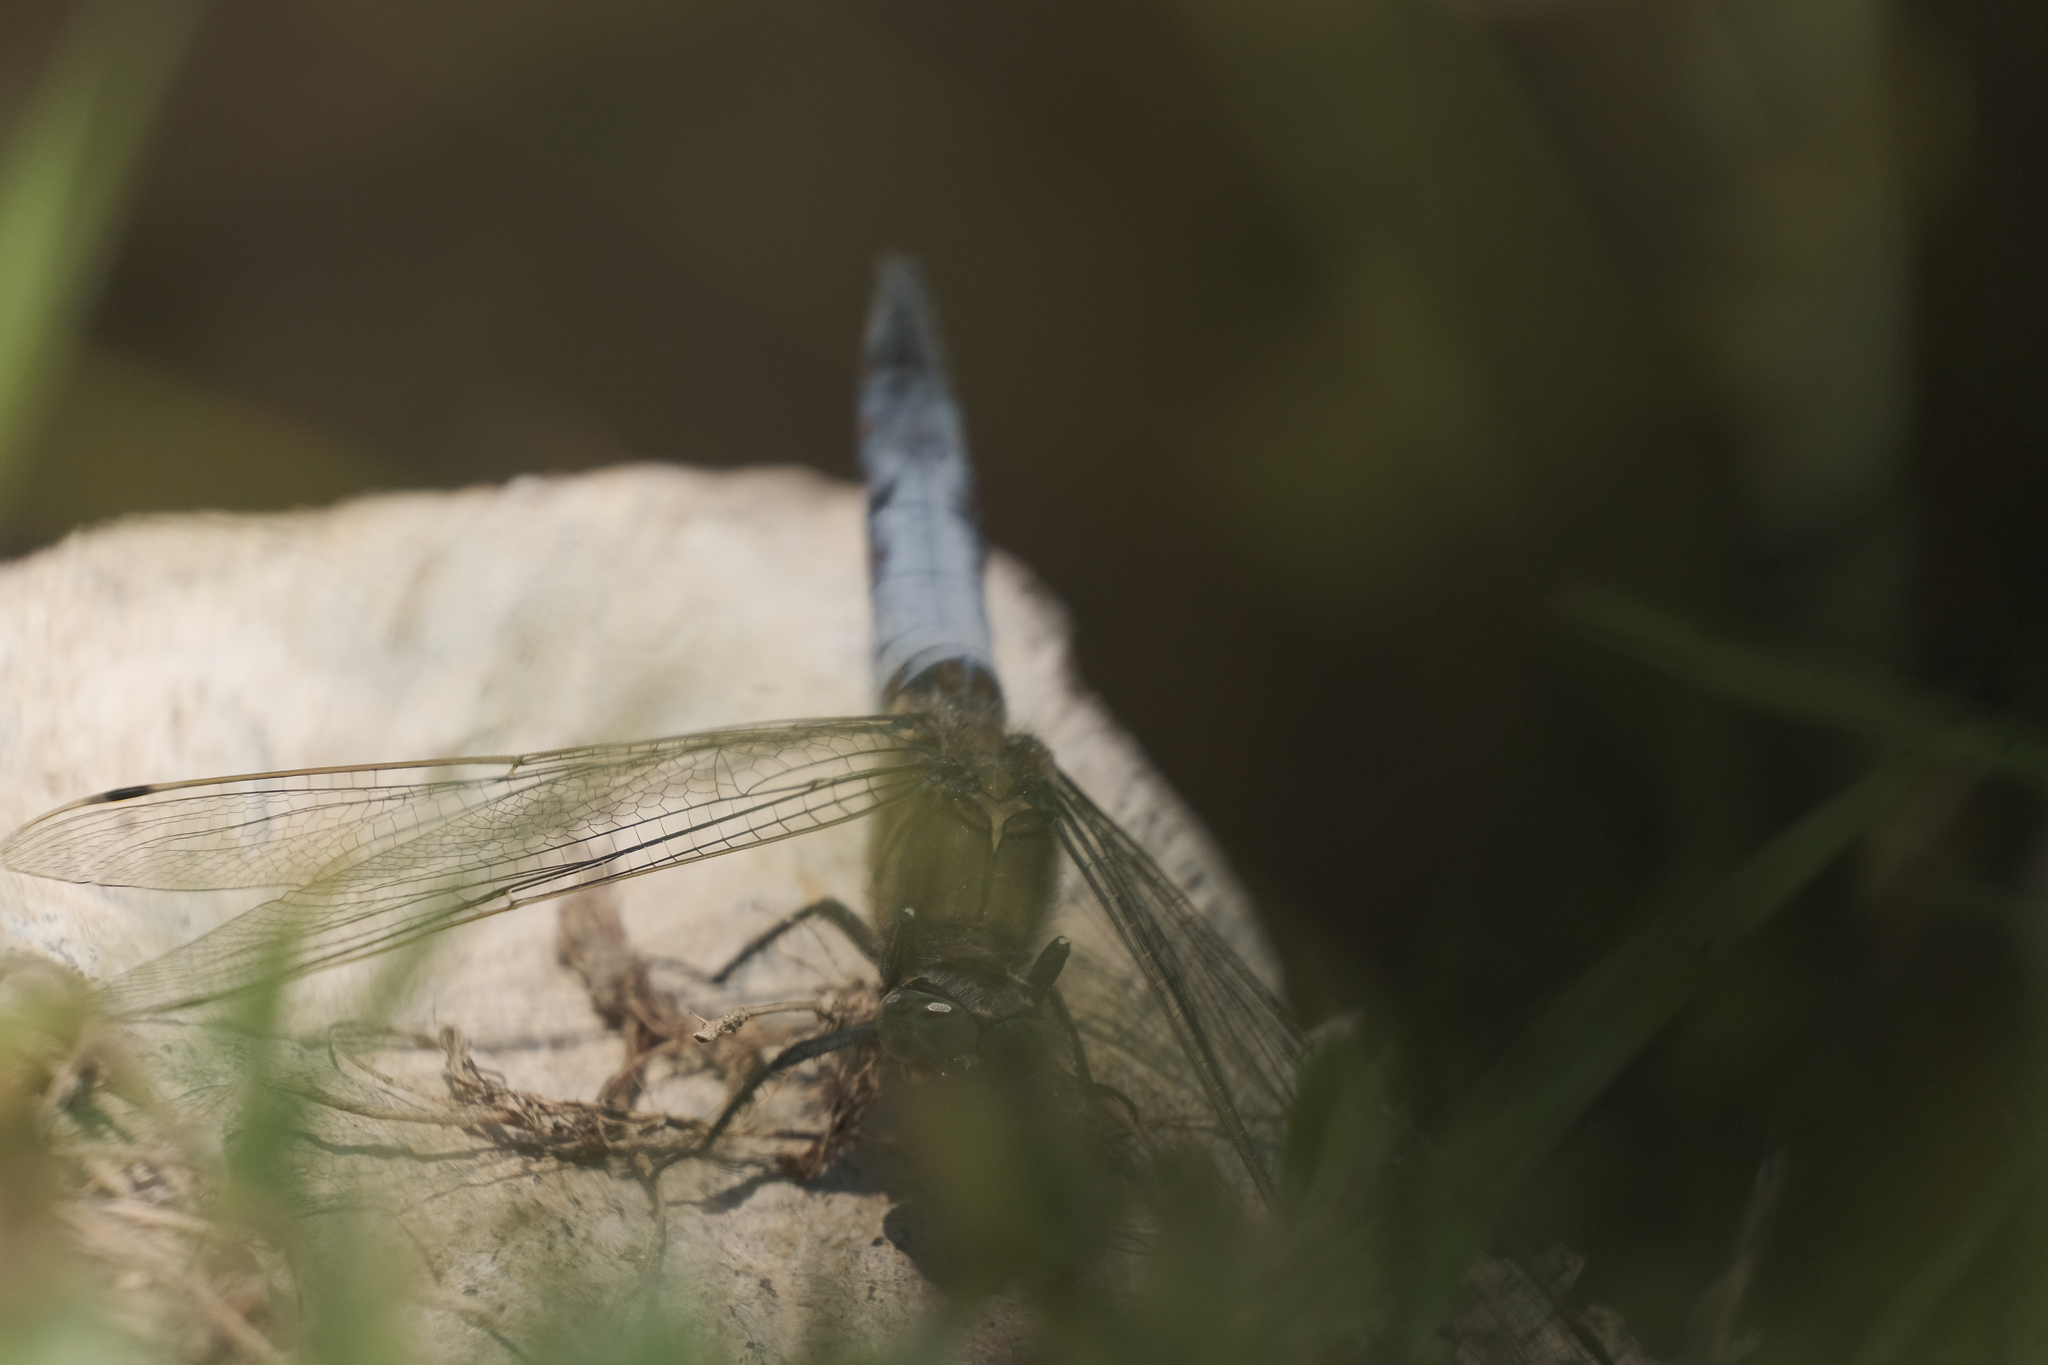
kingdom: Animalia
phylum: Arthropoda
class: Insecta
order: Odonata
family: Libellulidae
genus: Orthetrum
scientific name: Orthetrum cancellatum
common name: Black-tailed skimmer
